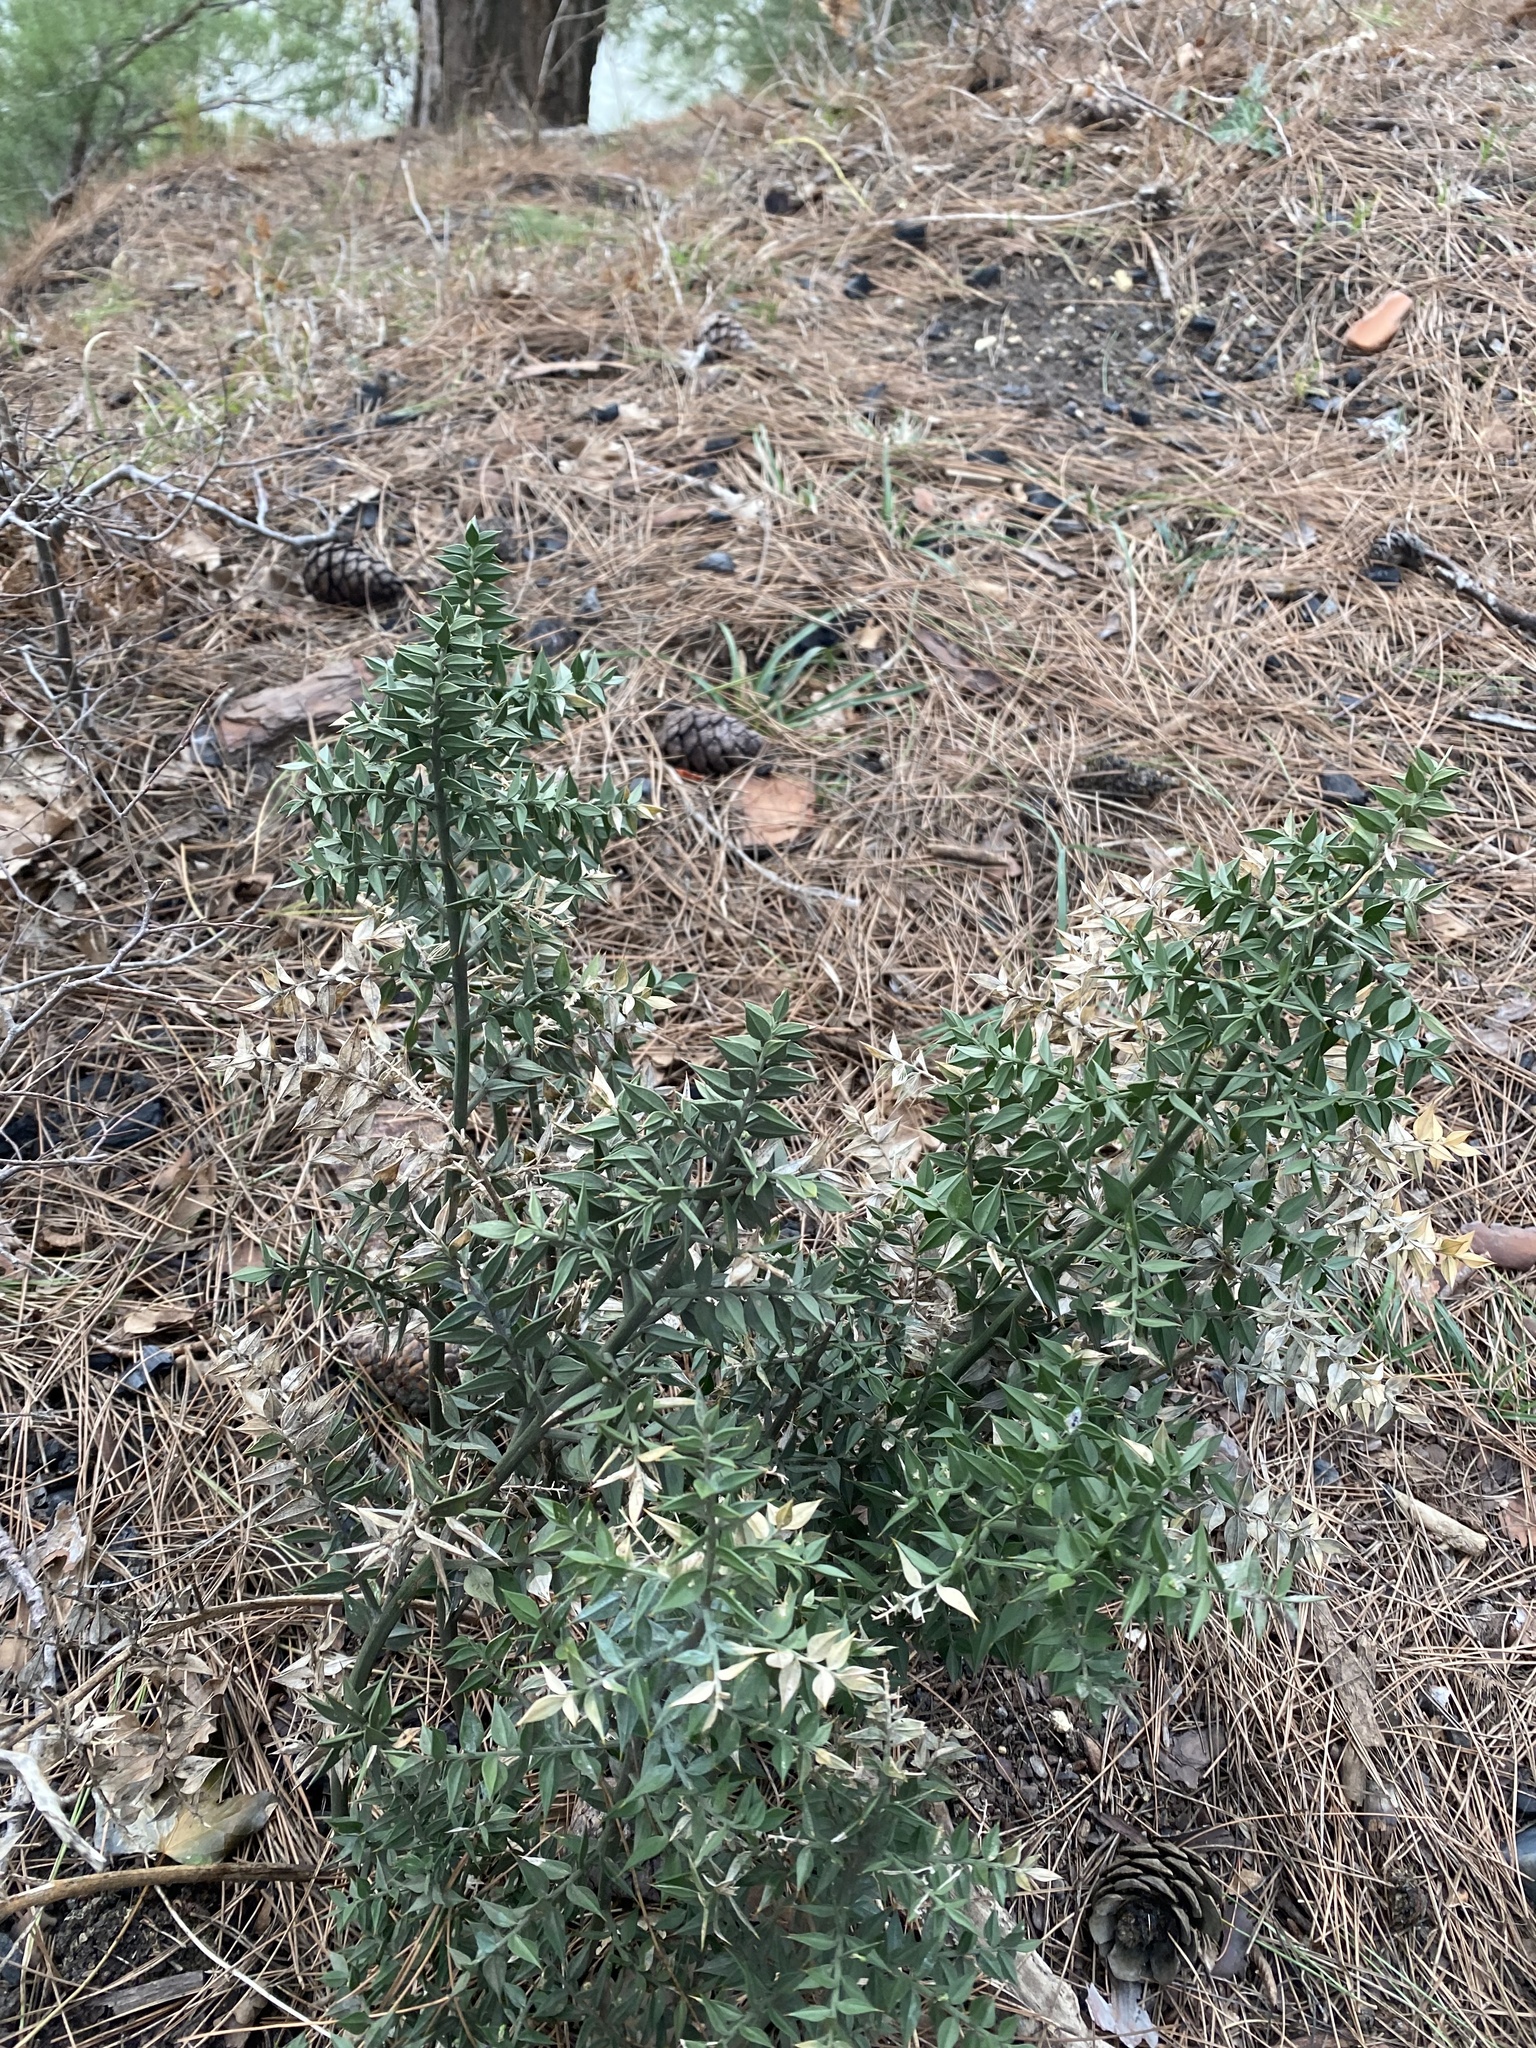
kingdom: Plantae
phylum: Tracheophyta
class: Liliopsida
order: Asparagales
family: Asparagaceae
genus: Ruscus
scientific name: Ruscus aculeatus
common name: Butcher's-broom
